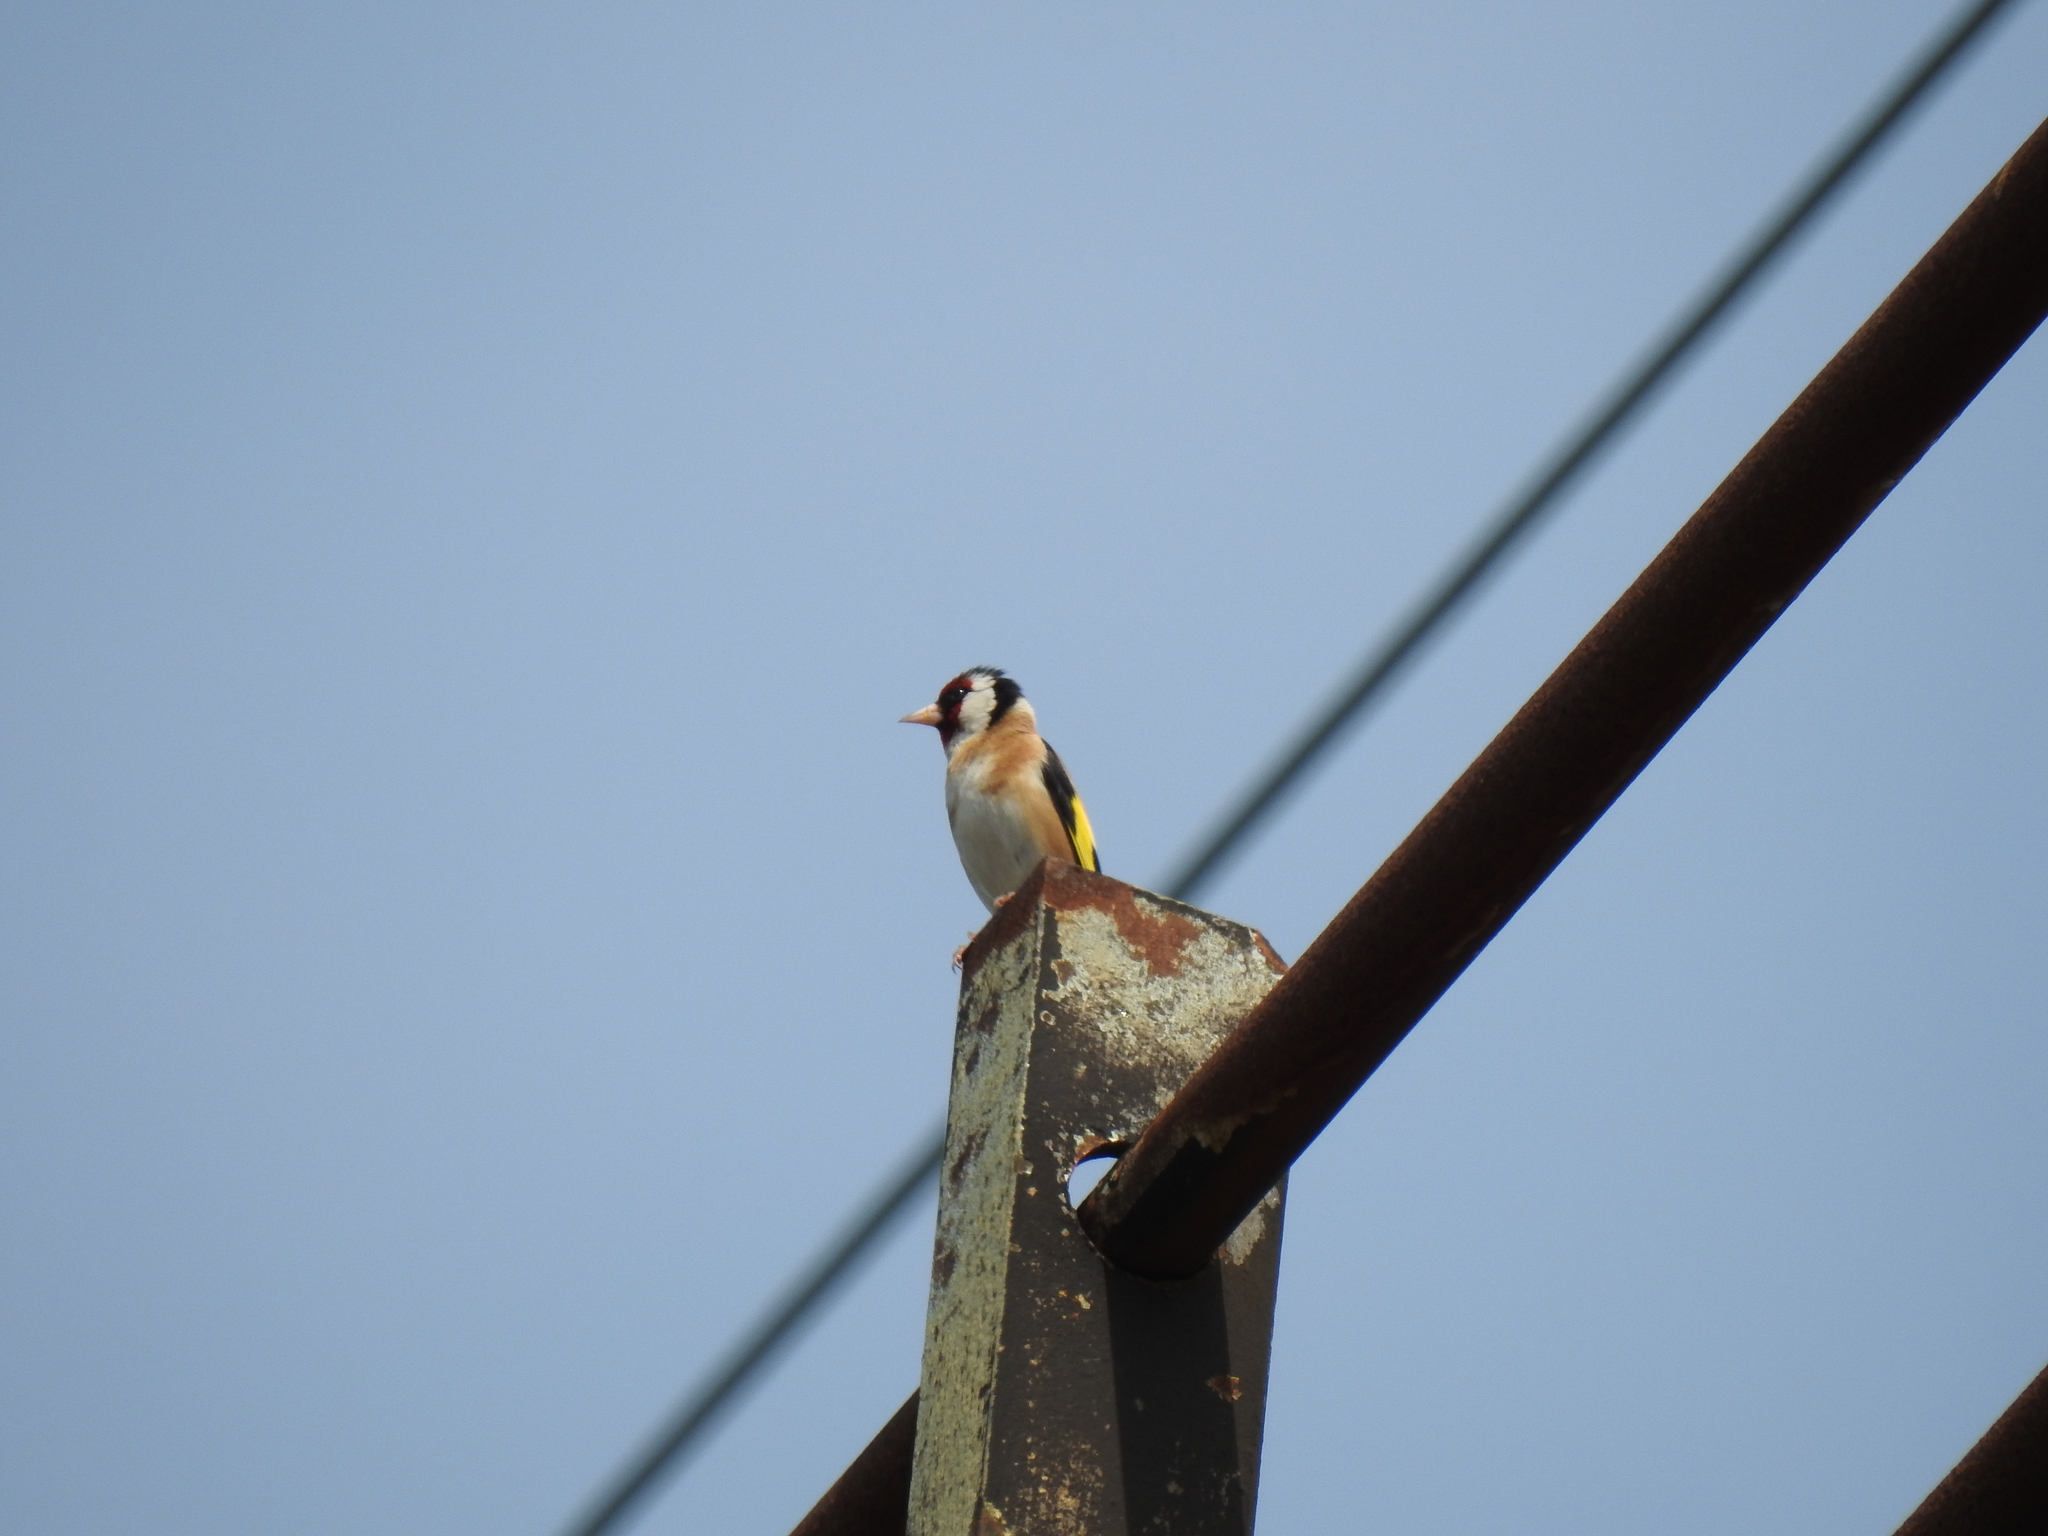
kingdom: Animalia
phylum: Chordata
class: Aves
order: Passeriformes
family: Fringillidae
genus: Carduelis
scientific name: Carduelis carduelis
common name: European goldfinch
